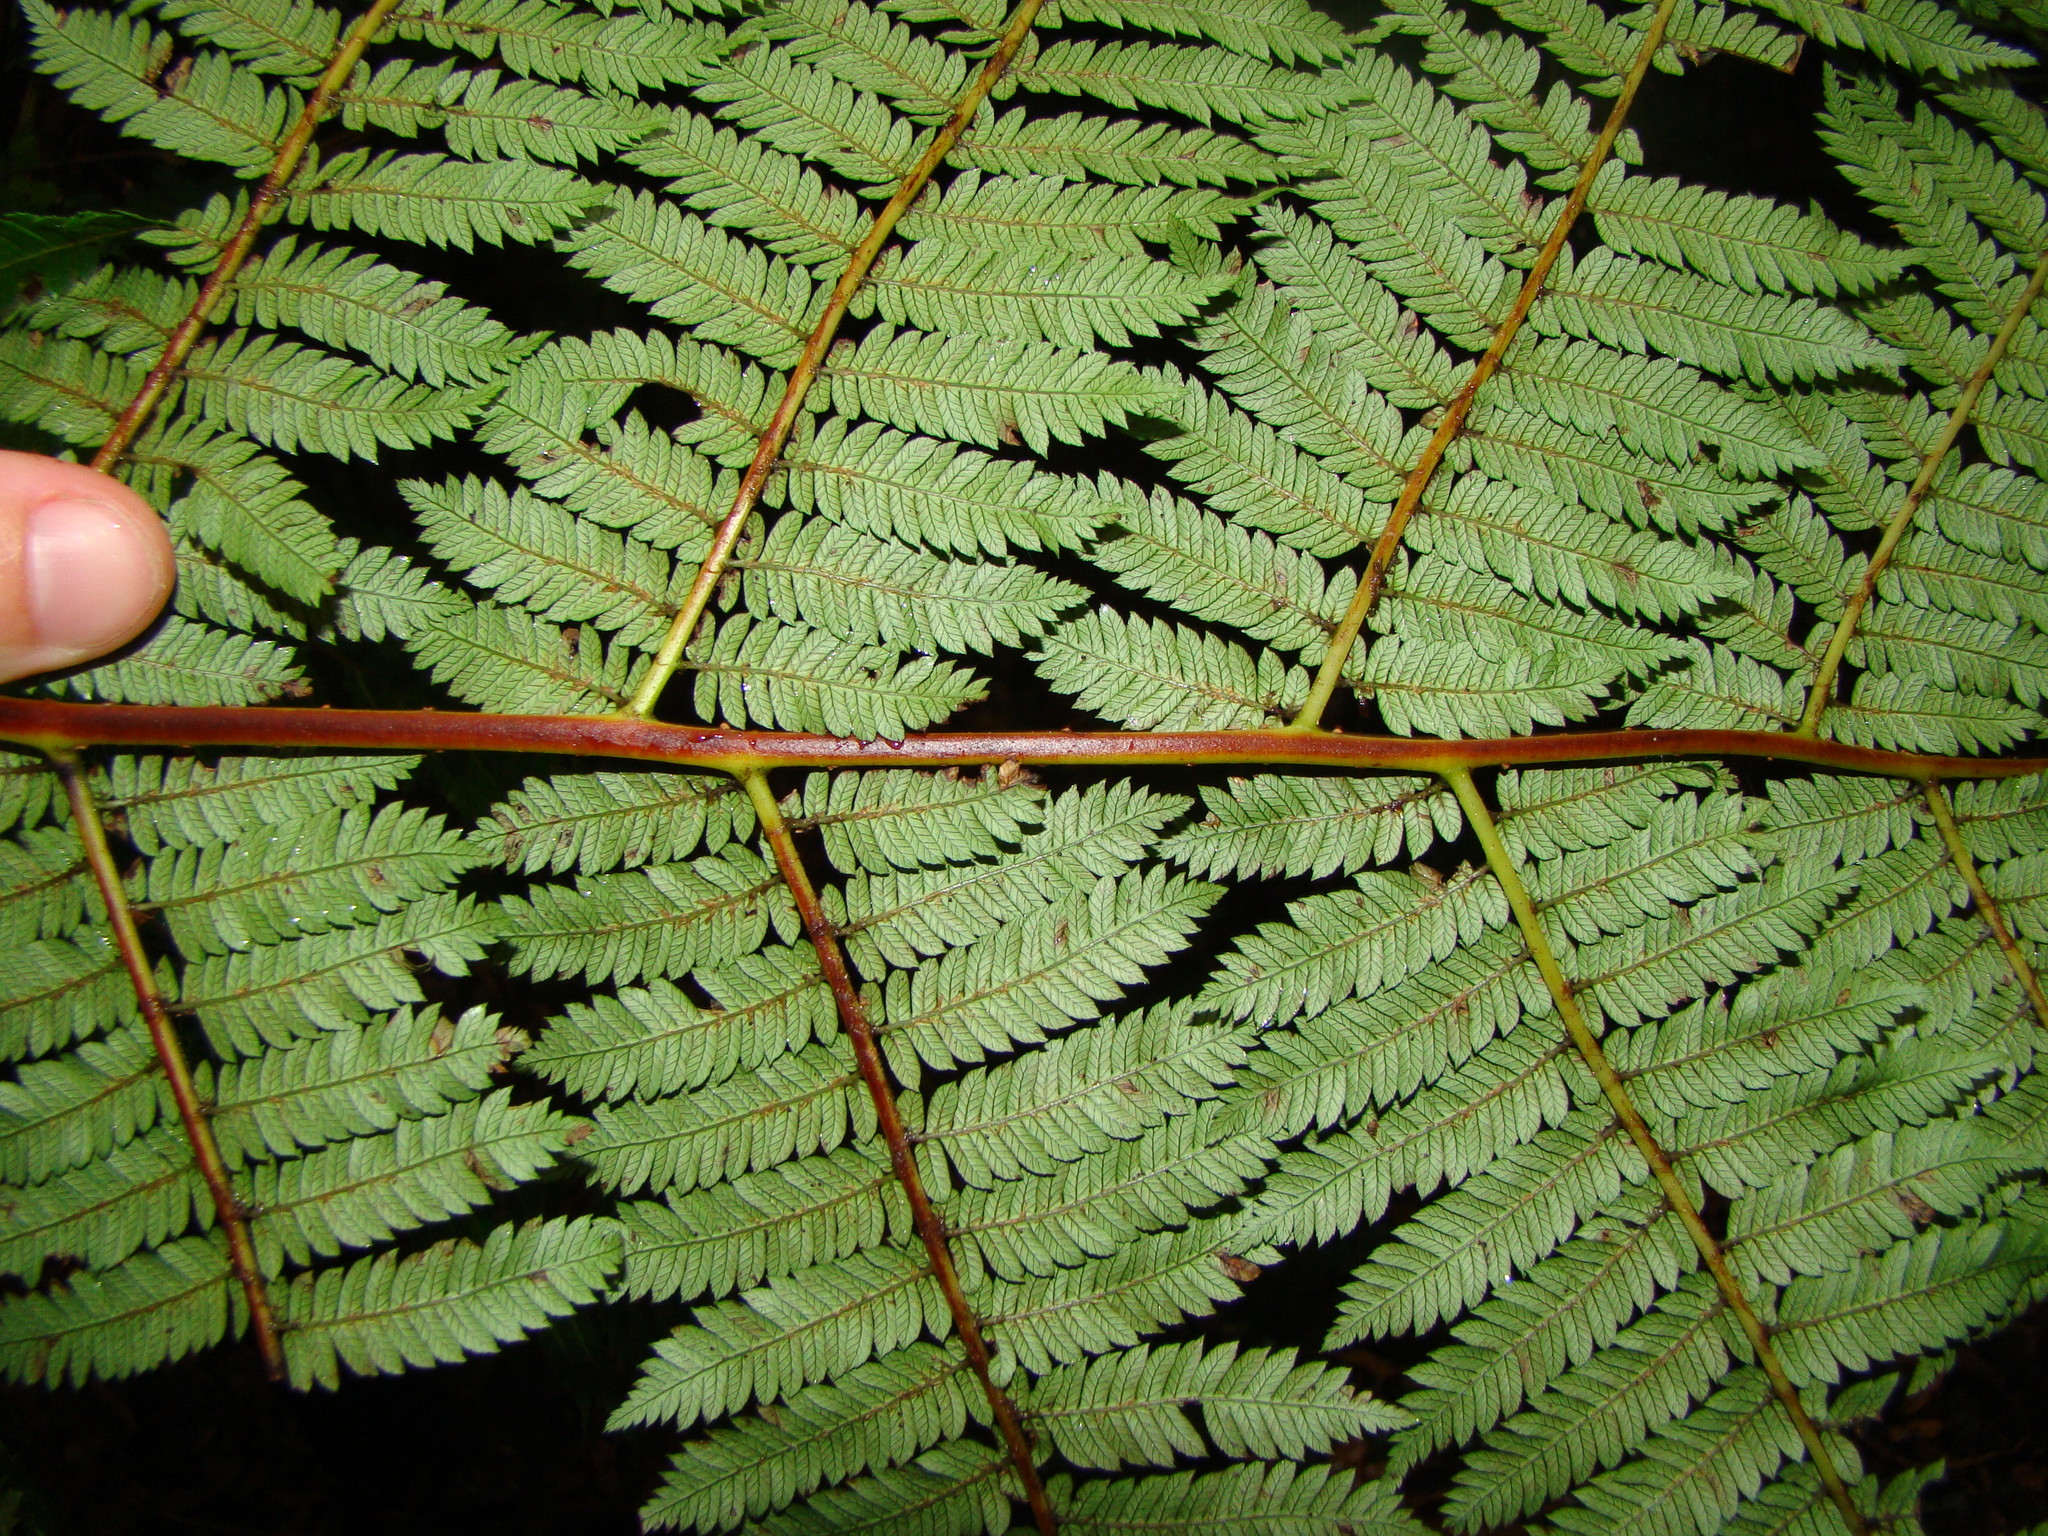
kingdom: Plantae
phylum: Tracheophyta
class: Polypodiopsida
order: Cyatheales
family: Cyatheaceae
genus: Alsophila
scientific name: Alsophila smithii
